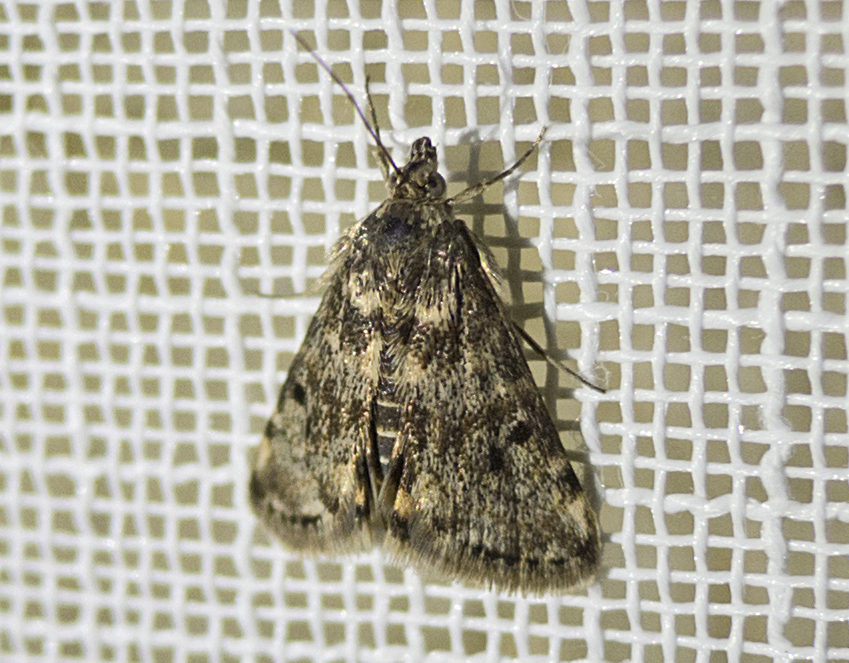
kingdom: Animalia
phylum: Arthropoda
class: Insecta
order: Lepidoptera
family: Crambidae
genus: Noctuelia
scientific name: Noctuelia Aporodes floralis
